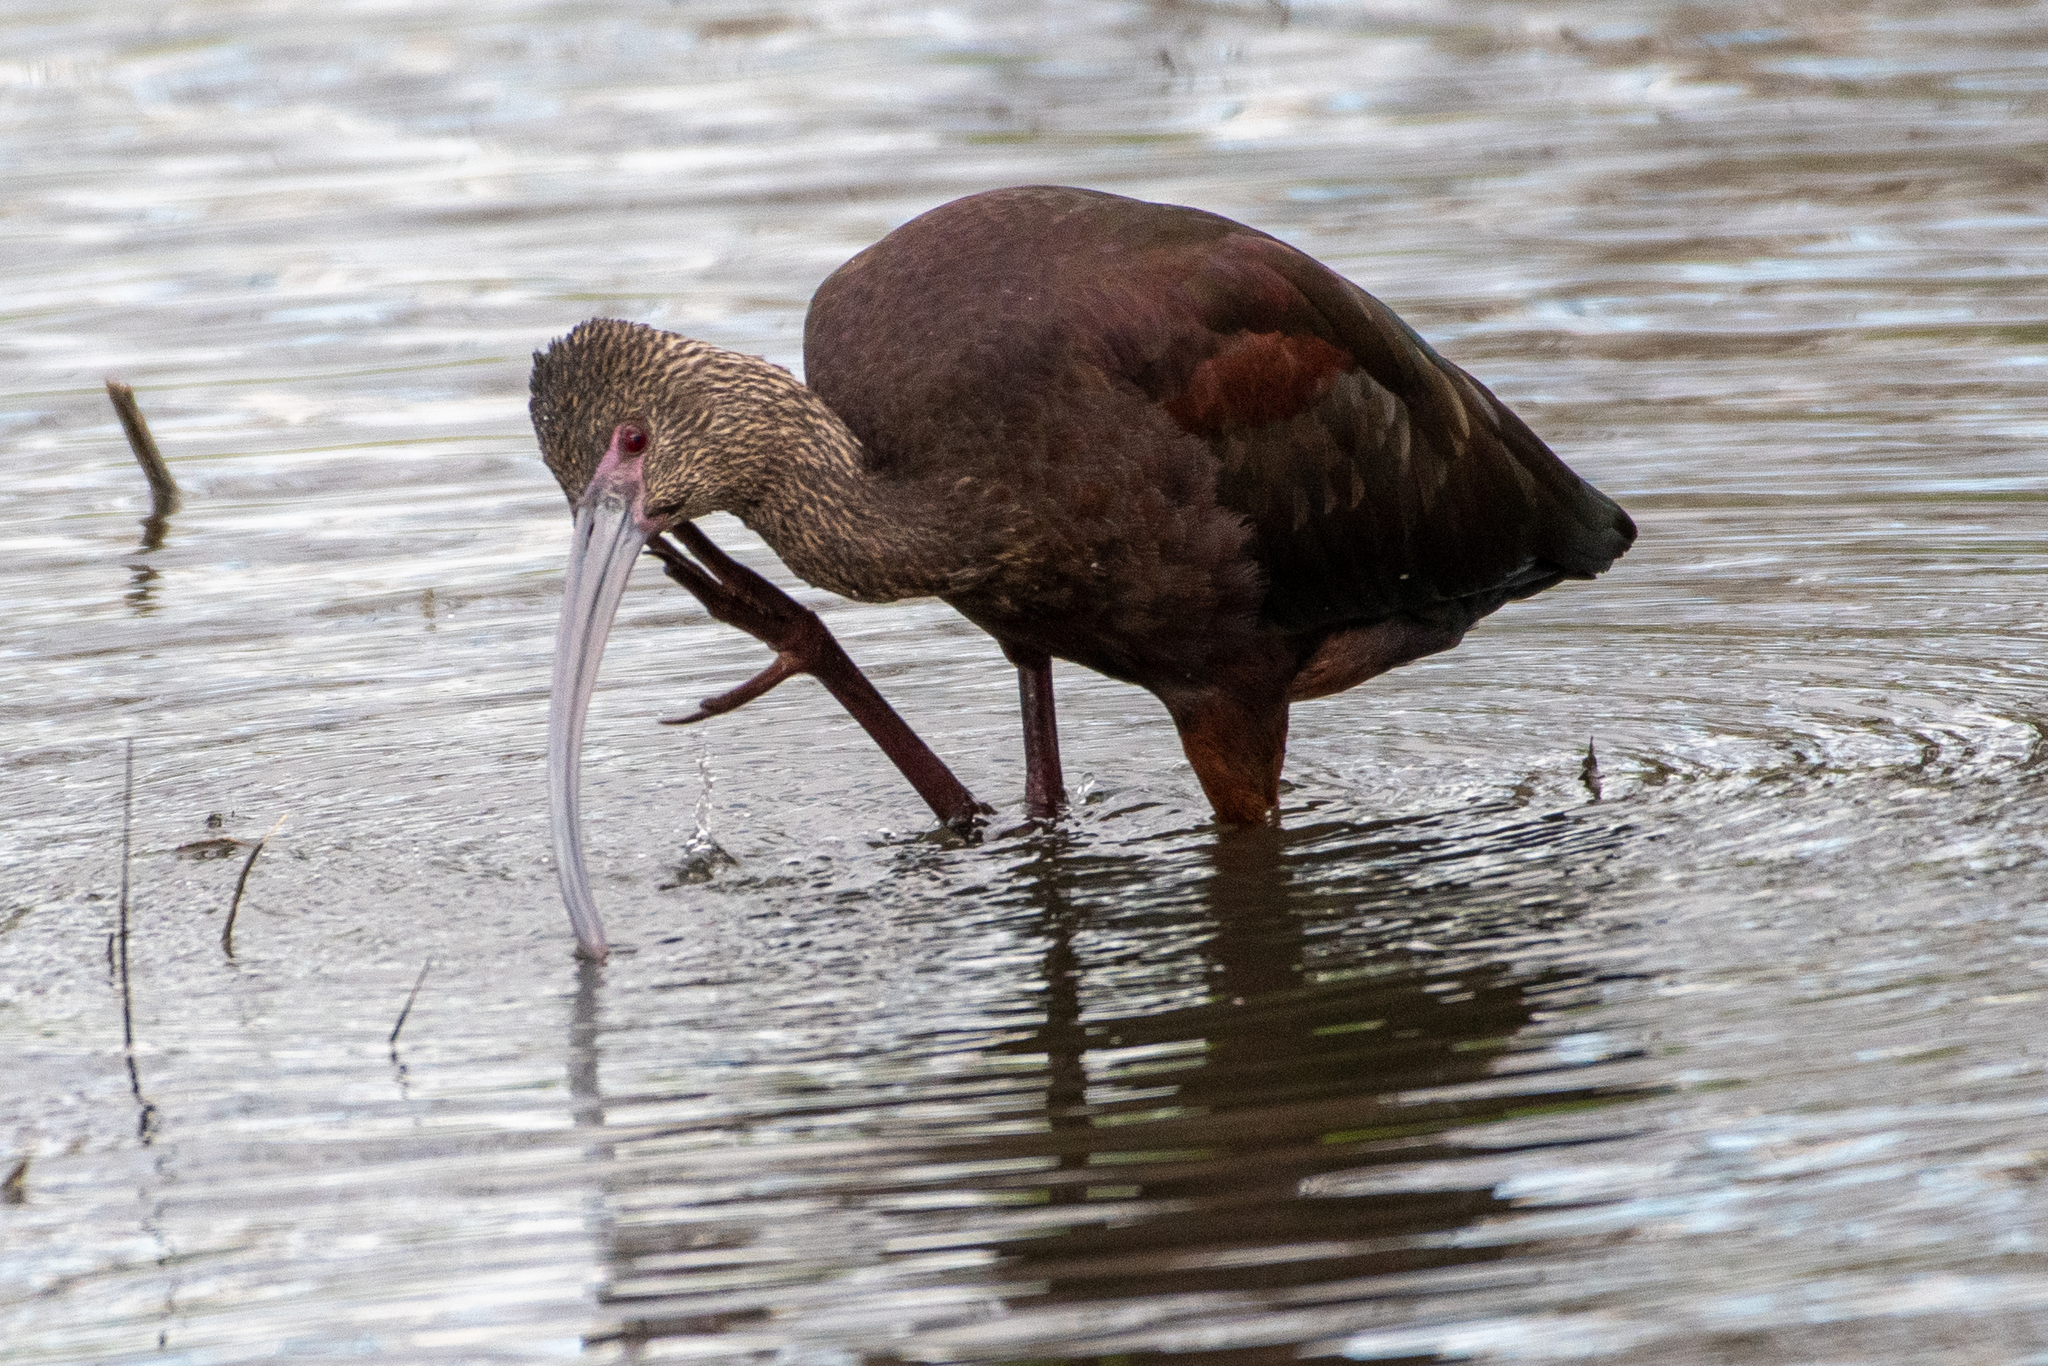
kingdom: Animalia
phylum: Chordata
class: Aves
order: Pelecaniformes
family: Threskiornithidae
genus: Plegadis
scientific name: Plegadis chihi
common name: White-faced ibis
